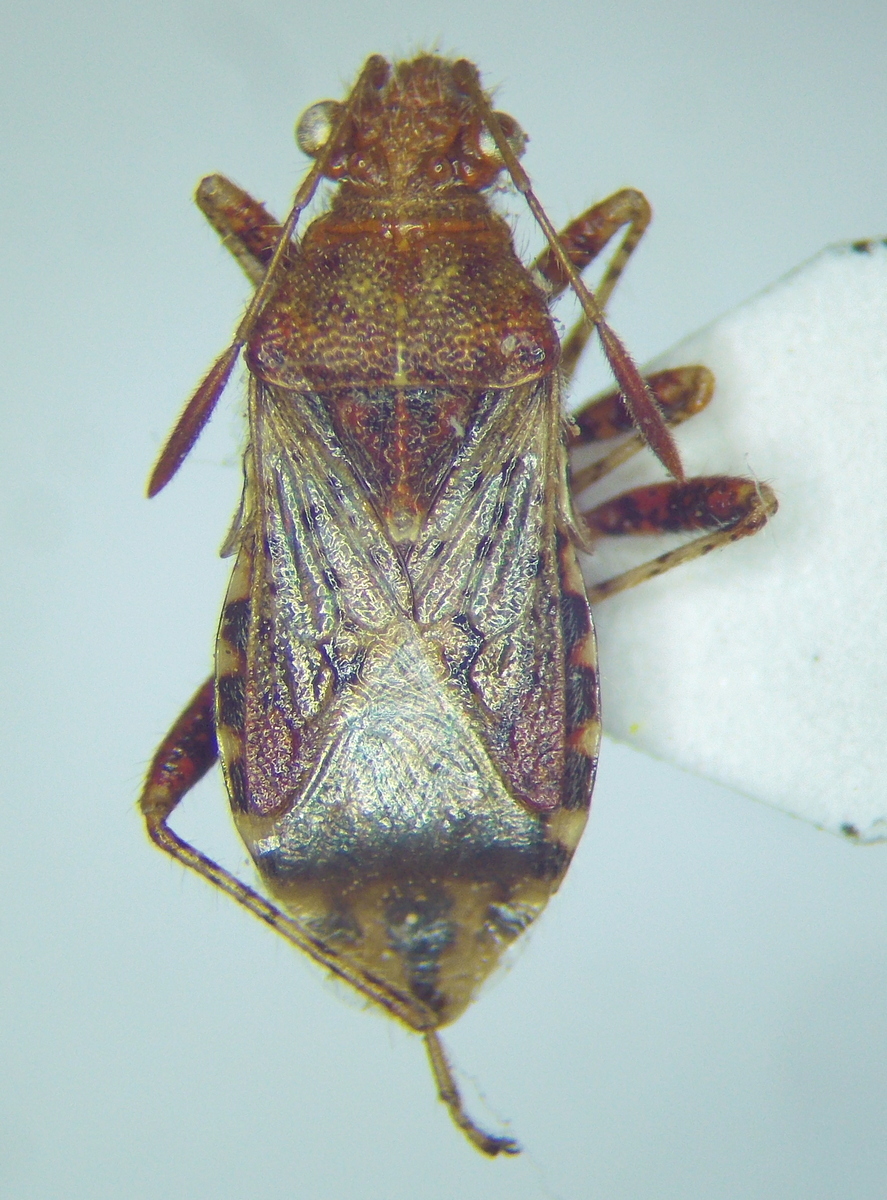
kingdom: Animalia
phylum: Arthropoda
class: Insecta
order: Hemiptera
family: Rhopalidae
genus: Rhopalus
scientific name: Rhopalus subrufus
